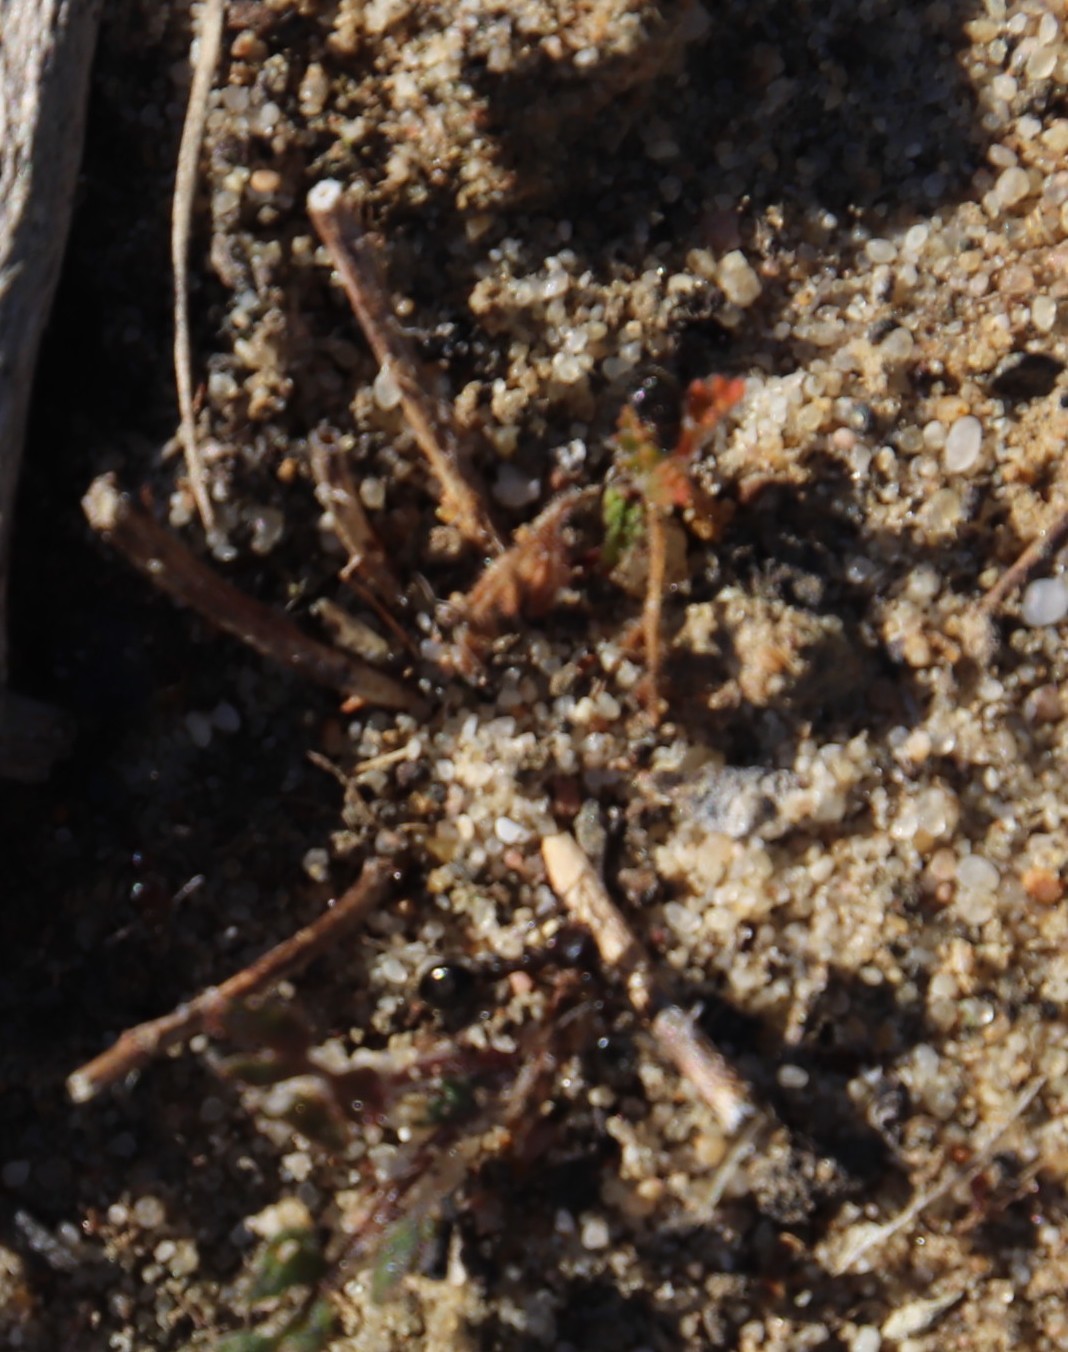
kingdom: Animalia
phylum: Arthropoda
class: Insecta
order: Hymenoptera
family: Formicidae
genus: Anoplolepis
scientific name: Anoplolepis steingroeveri
